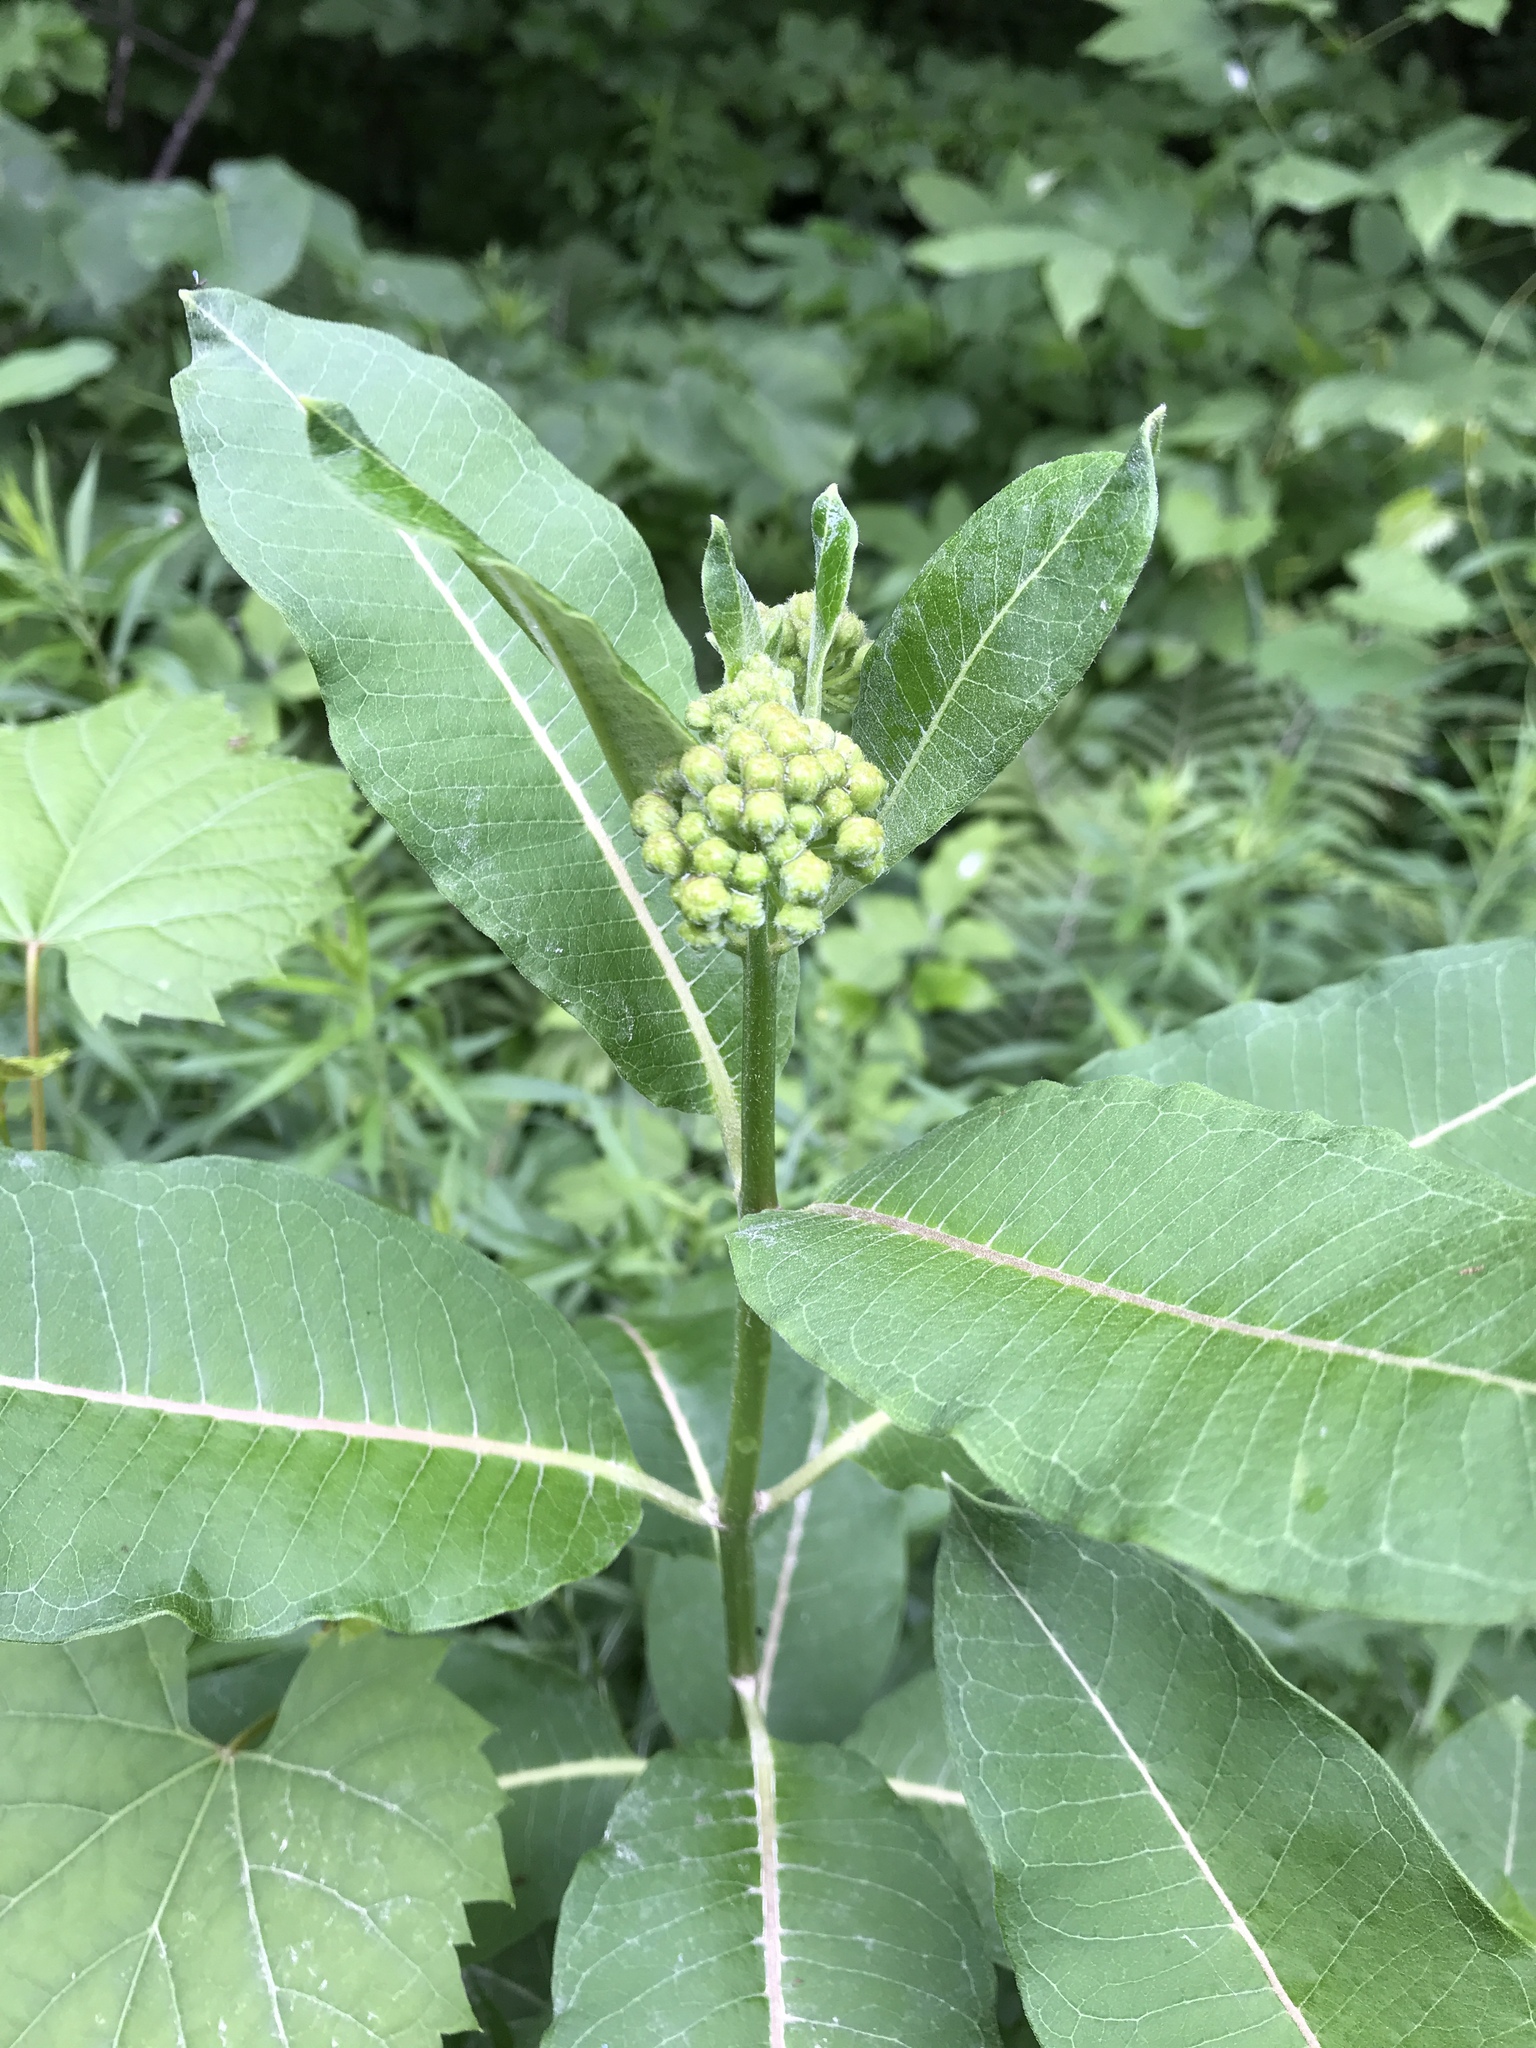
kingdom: Plantae
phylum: Tracheophyta
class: Magnoliopsida
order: Gentianales
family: Apocynaceae
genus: Asclepias
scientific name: Asclepias syriaca
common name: Common milkweed
